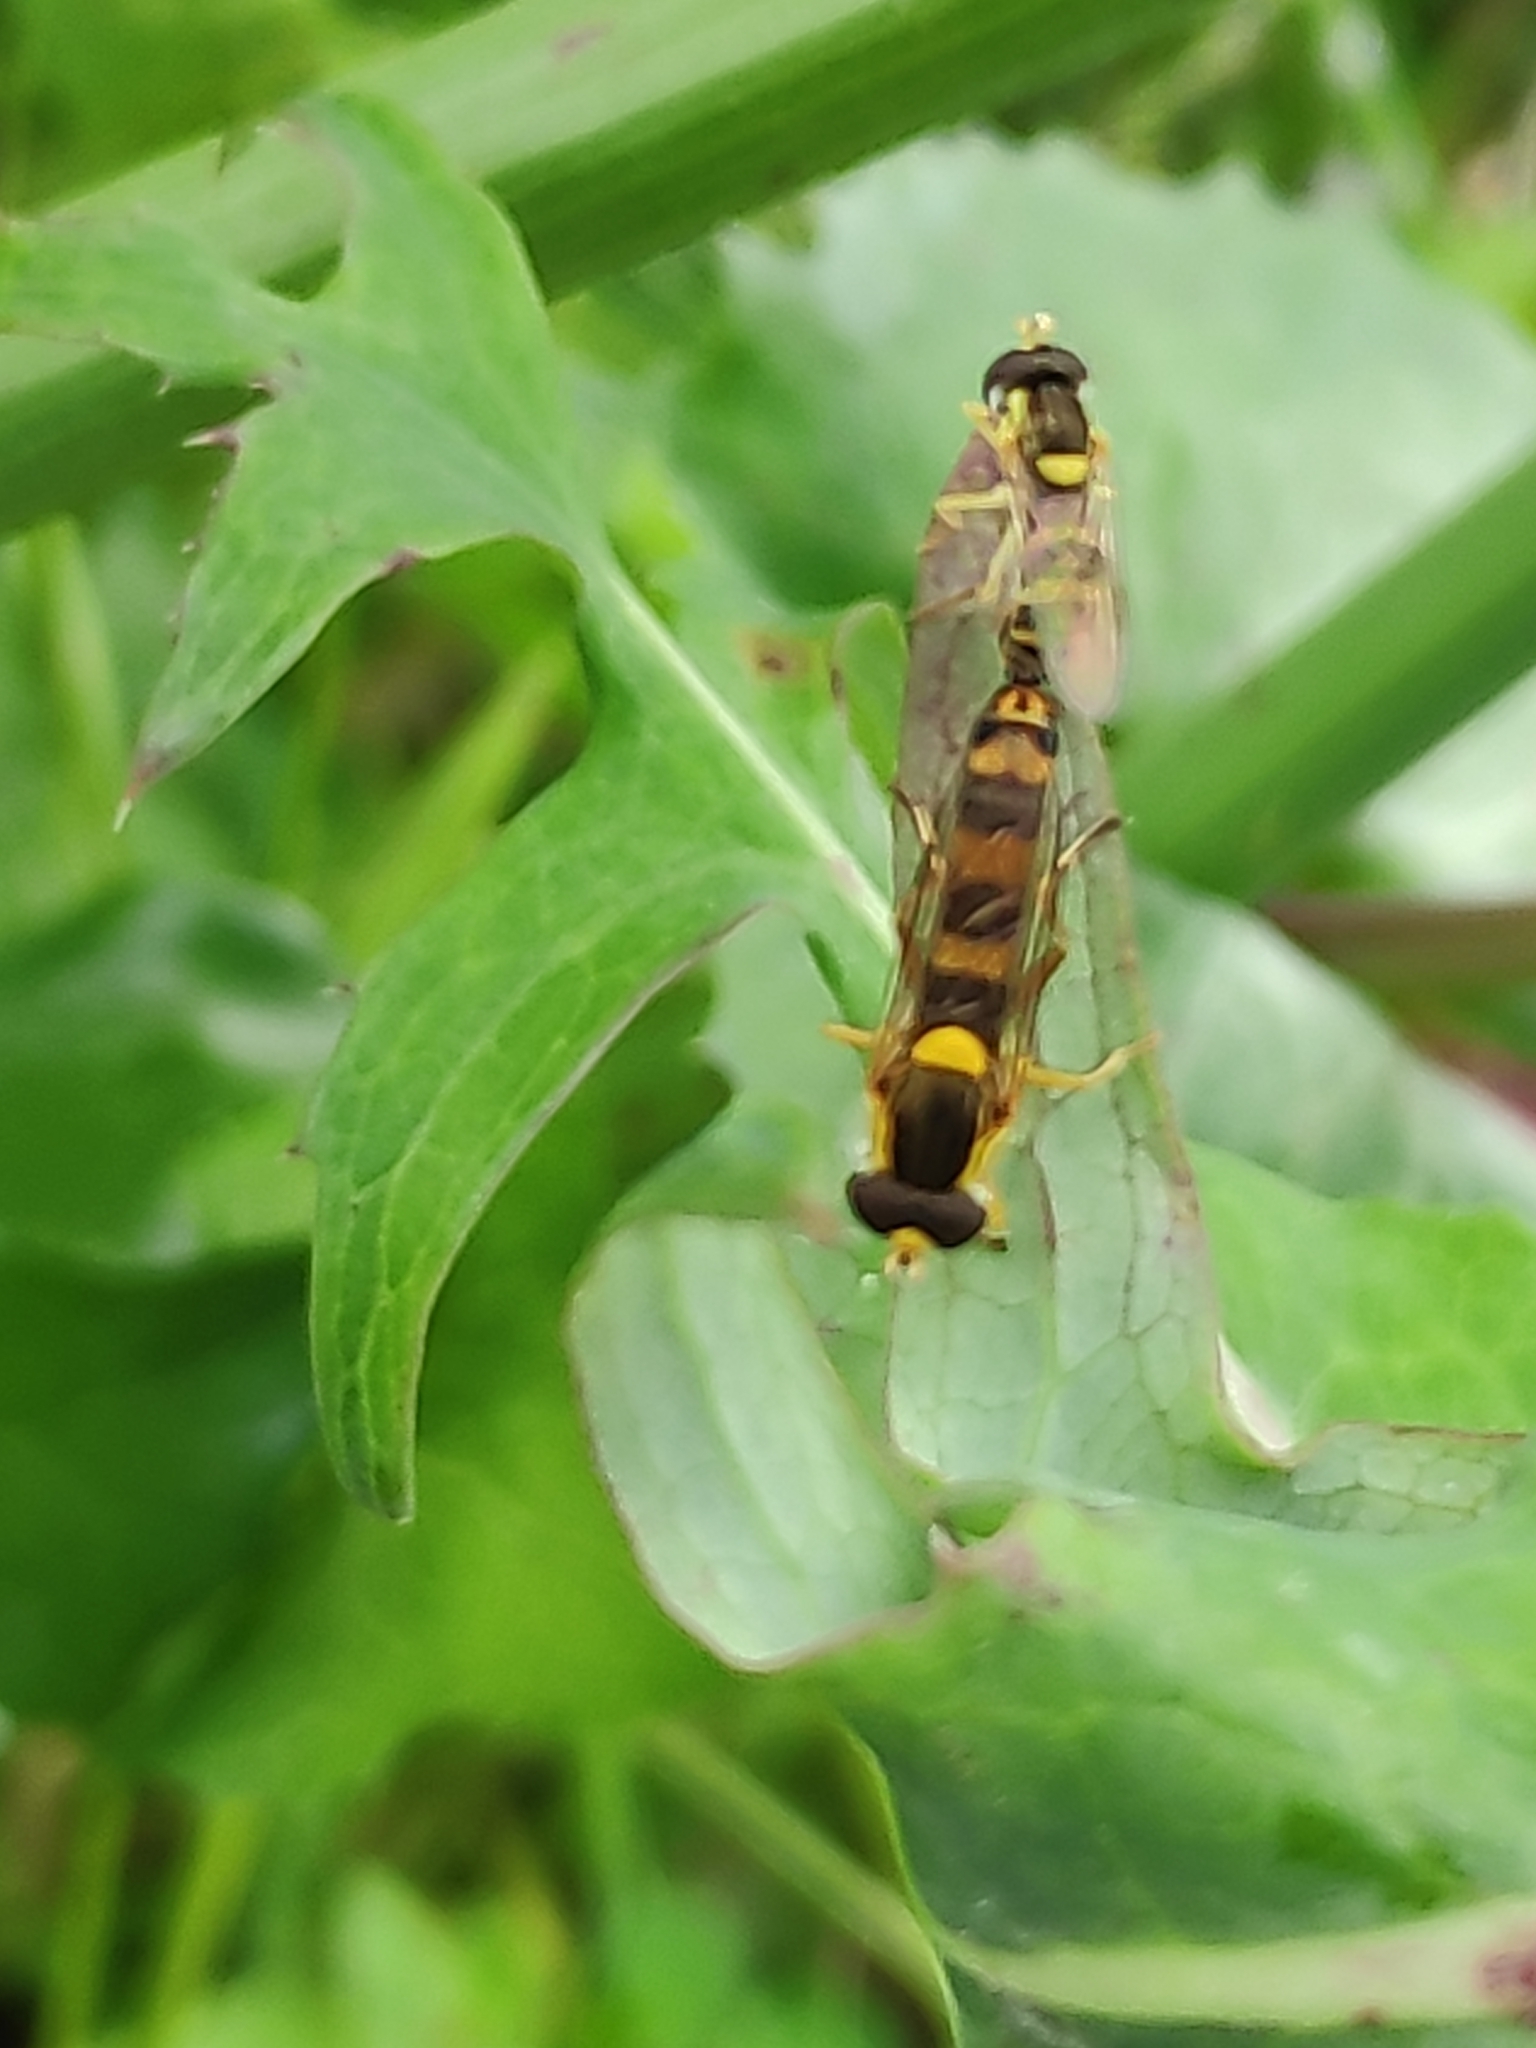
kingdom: Animalia
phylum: Arthropoda
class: Insecta
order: Diptera
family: Syrphidae
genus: Sphaerophoria
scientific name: Sphaerophoria scripta
